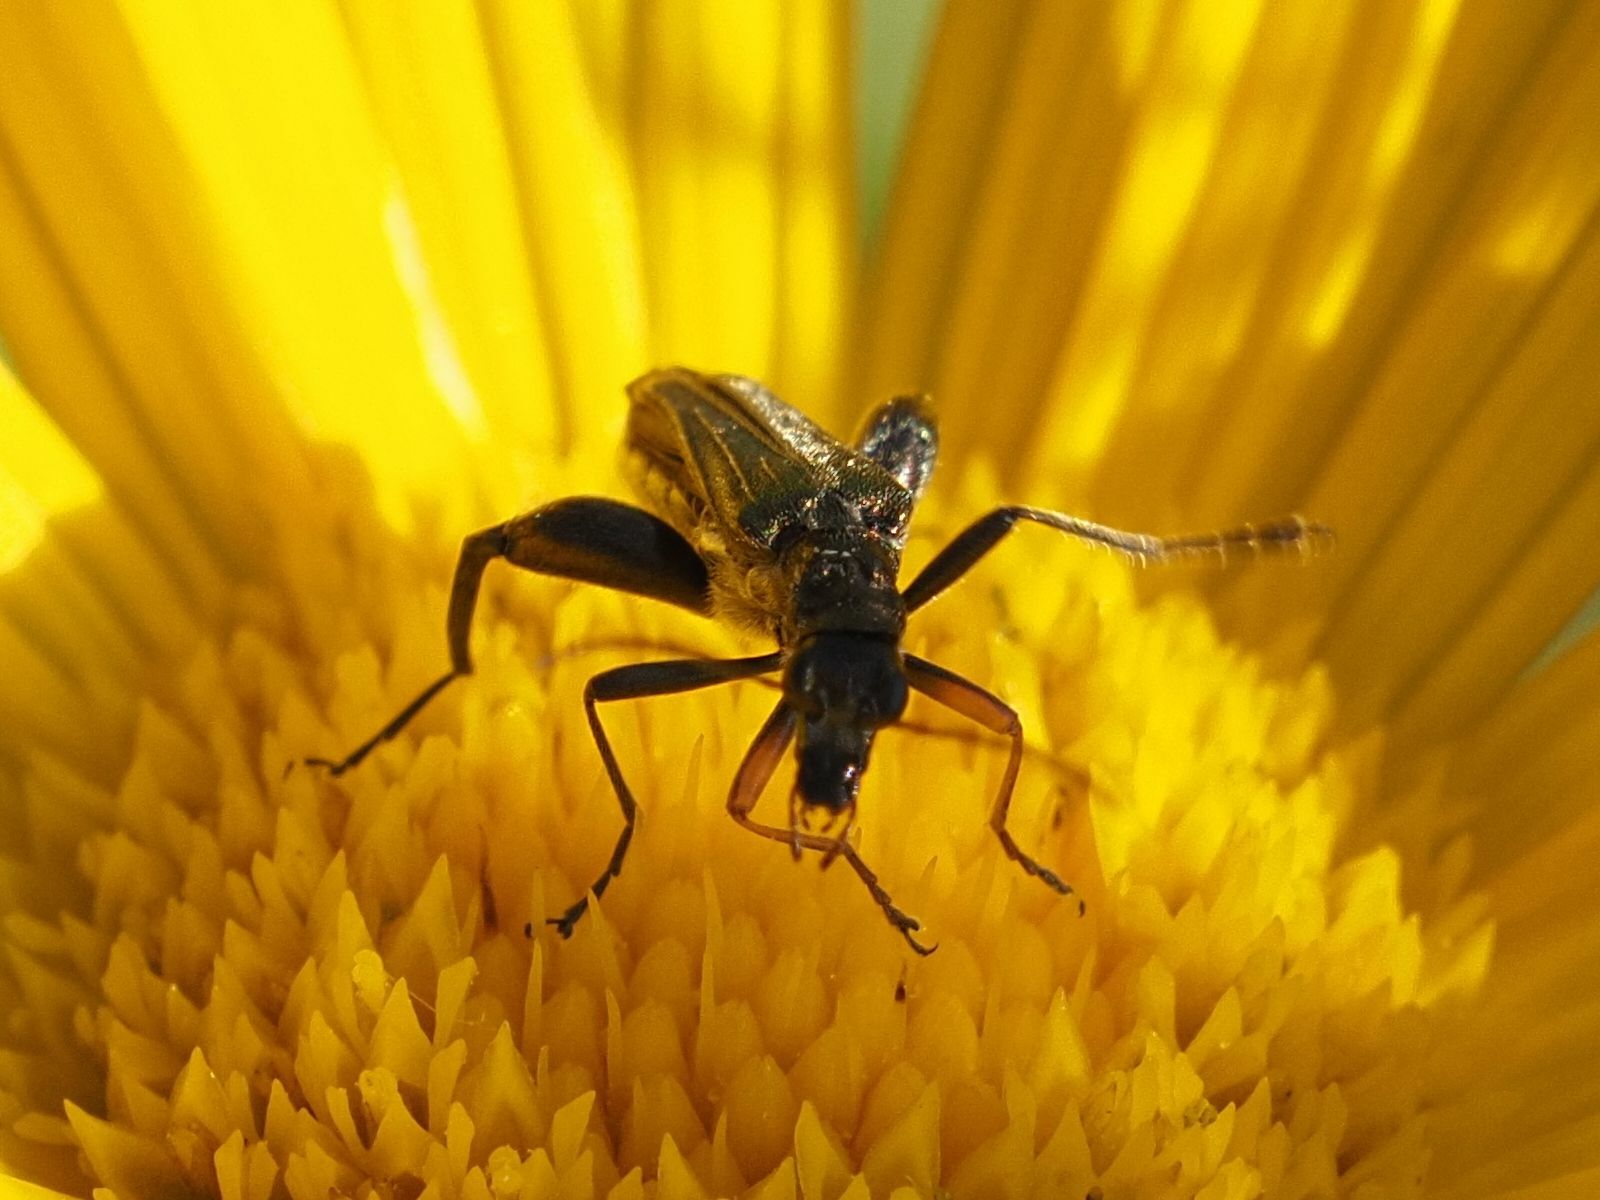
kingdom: Animalia
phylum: Arthropoda
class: Insecta
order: Coleoptera
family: Oedemeridae
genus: Oedemera
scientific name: Oedemera flavipes
